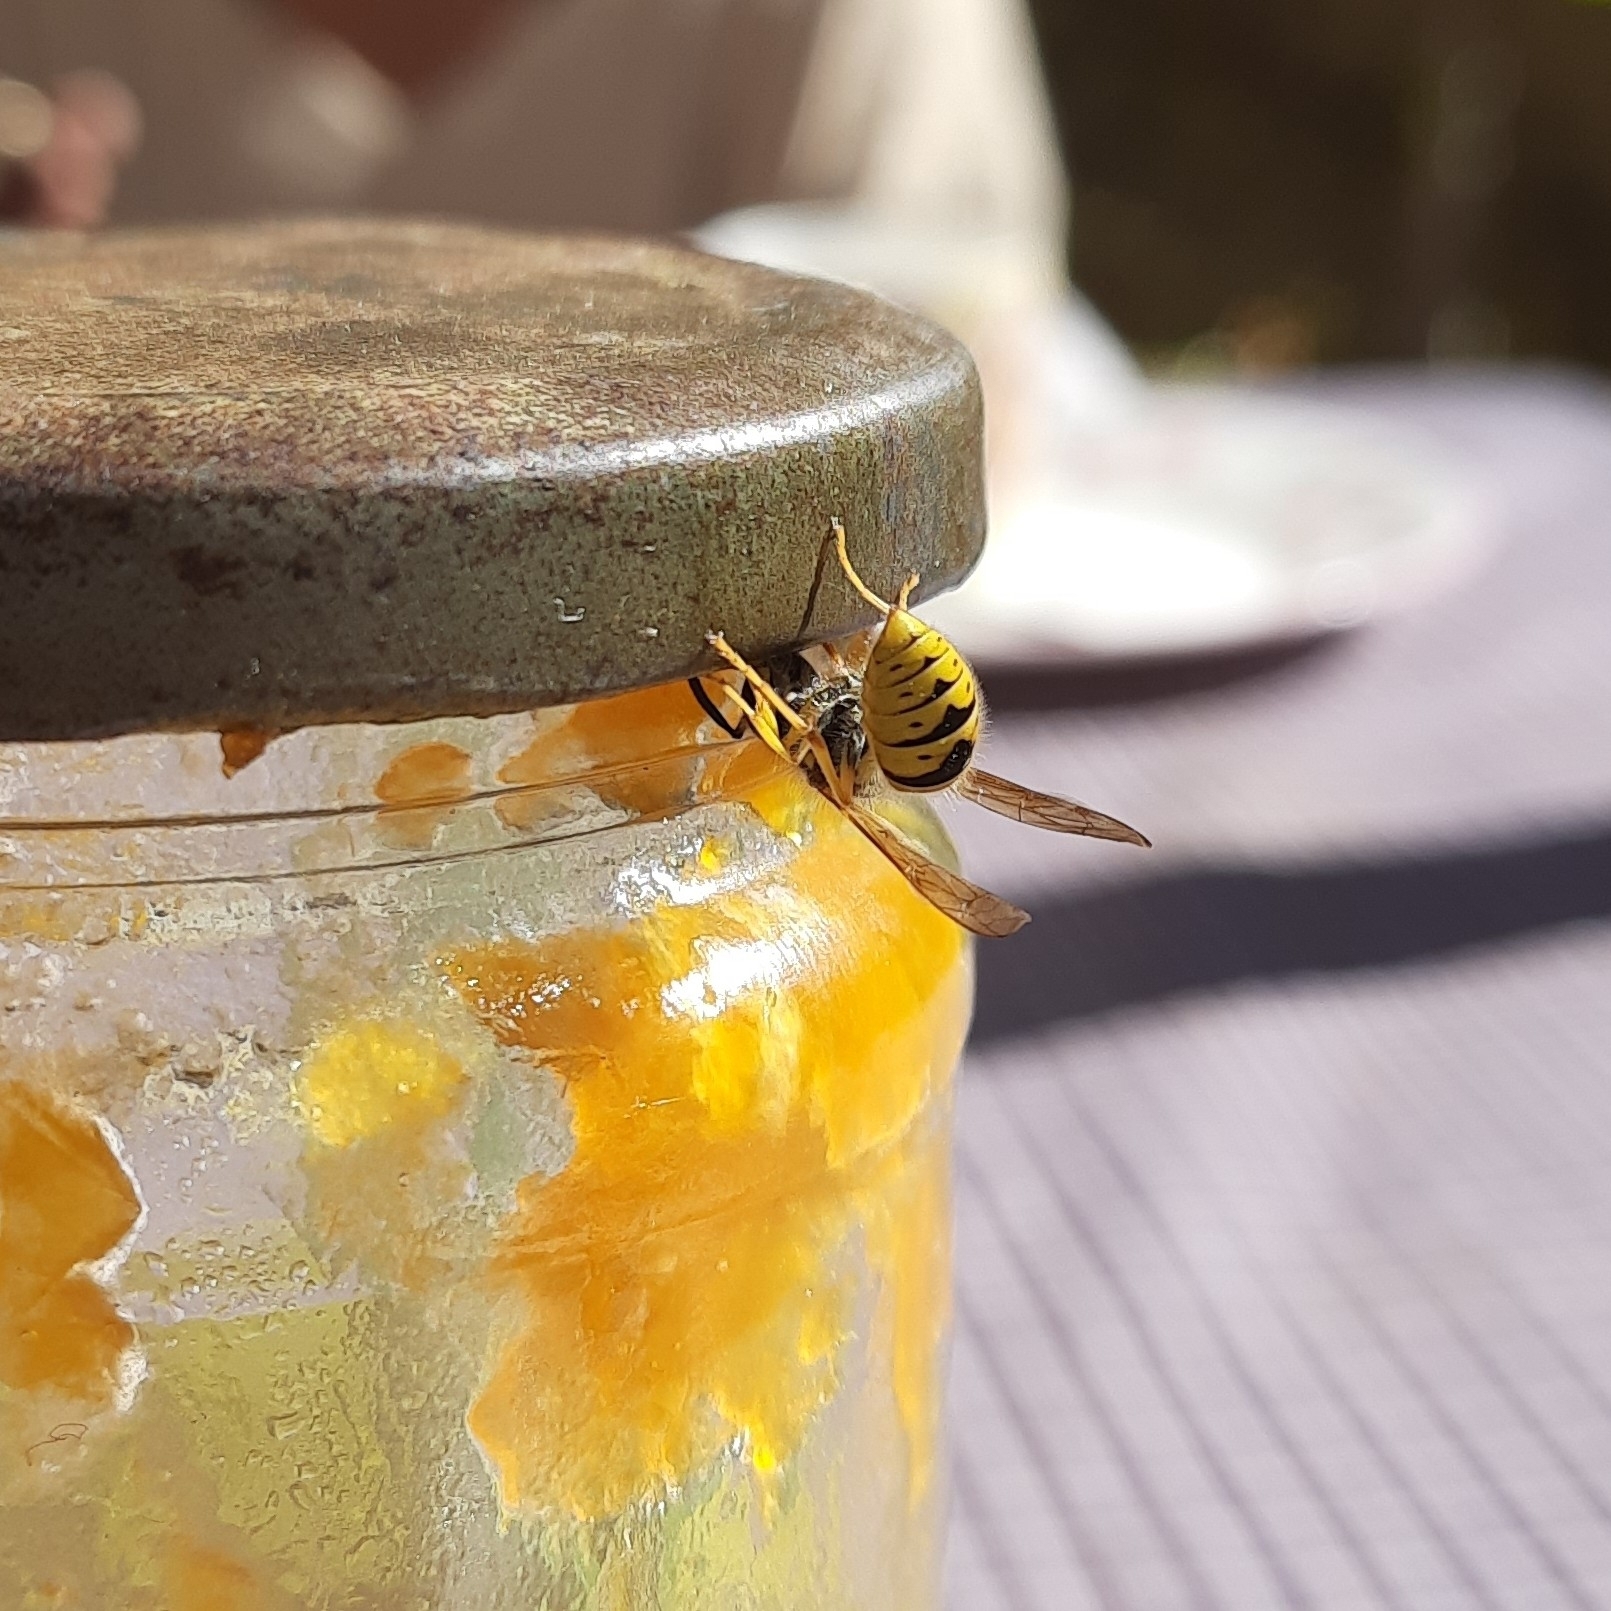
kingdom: Animalia
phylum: Arthropoda
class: Insecta
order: Hymenoptera
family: Vespidae
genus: Vespula
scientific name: Vespula germanica
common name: German wasp
